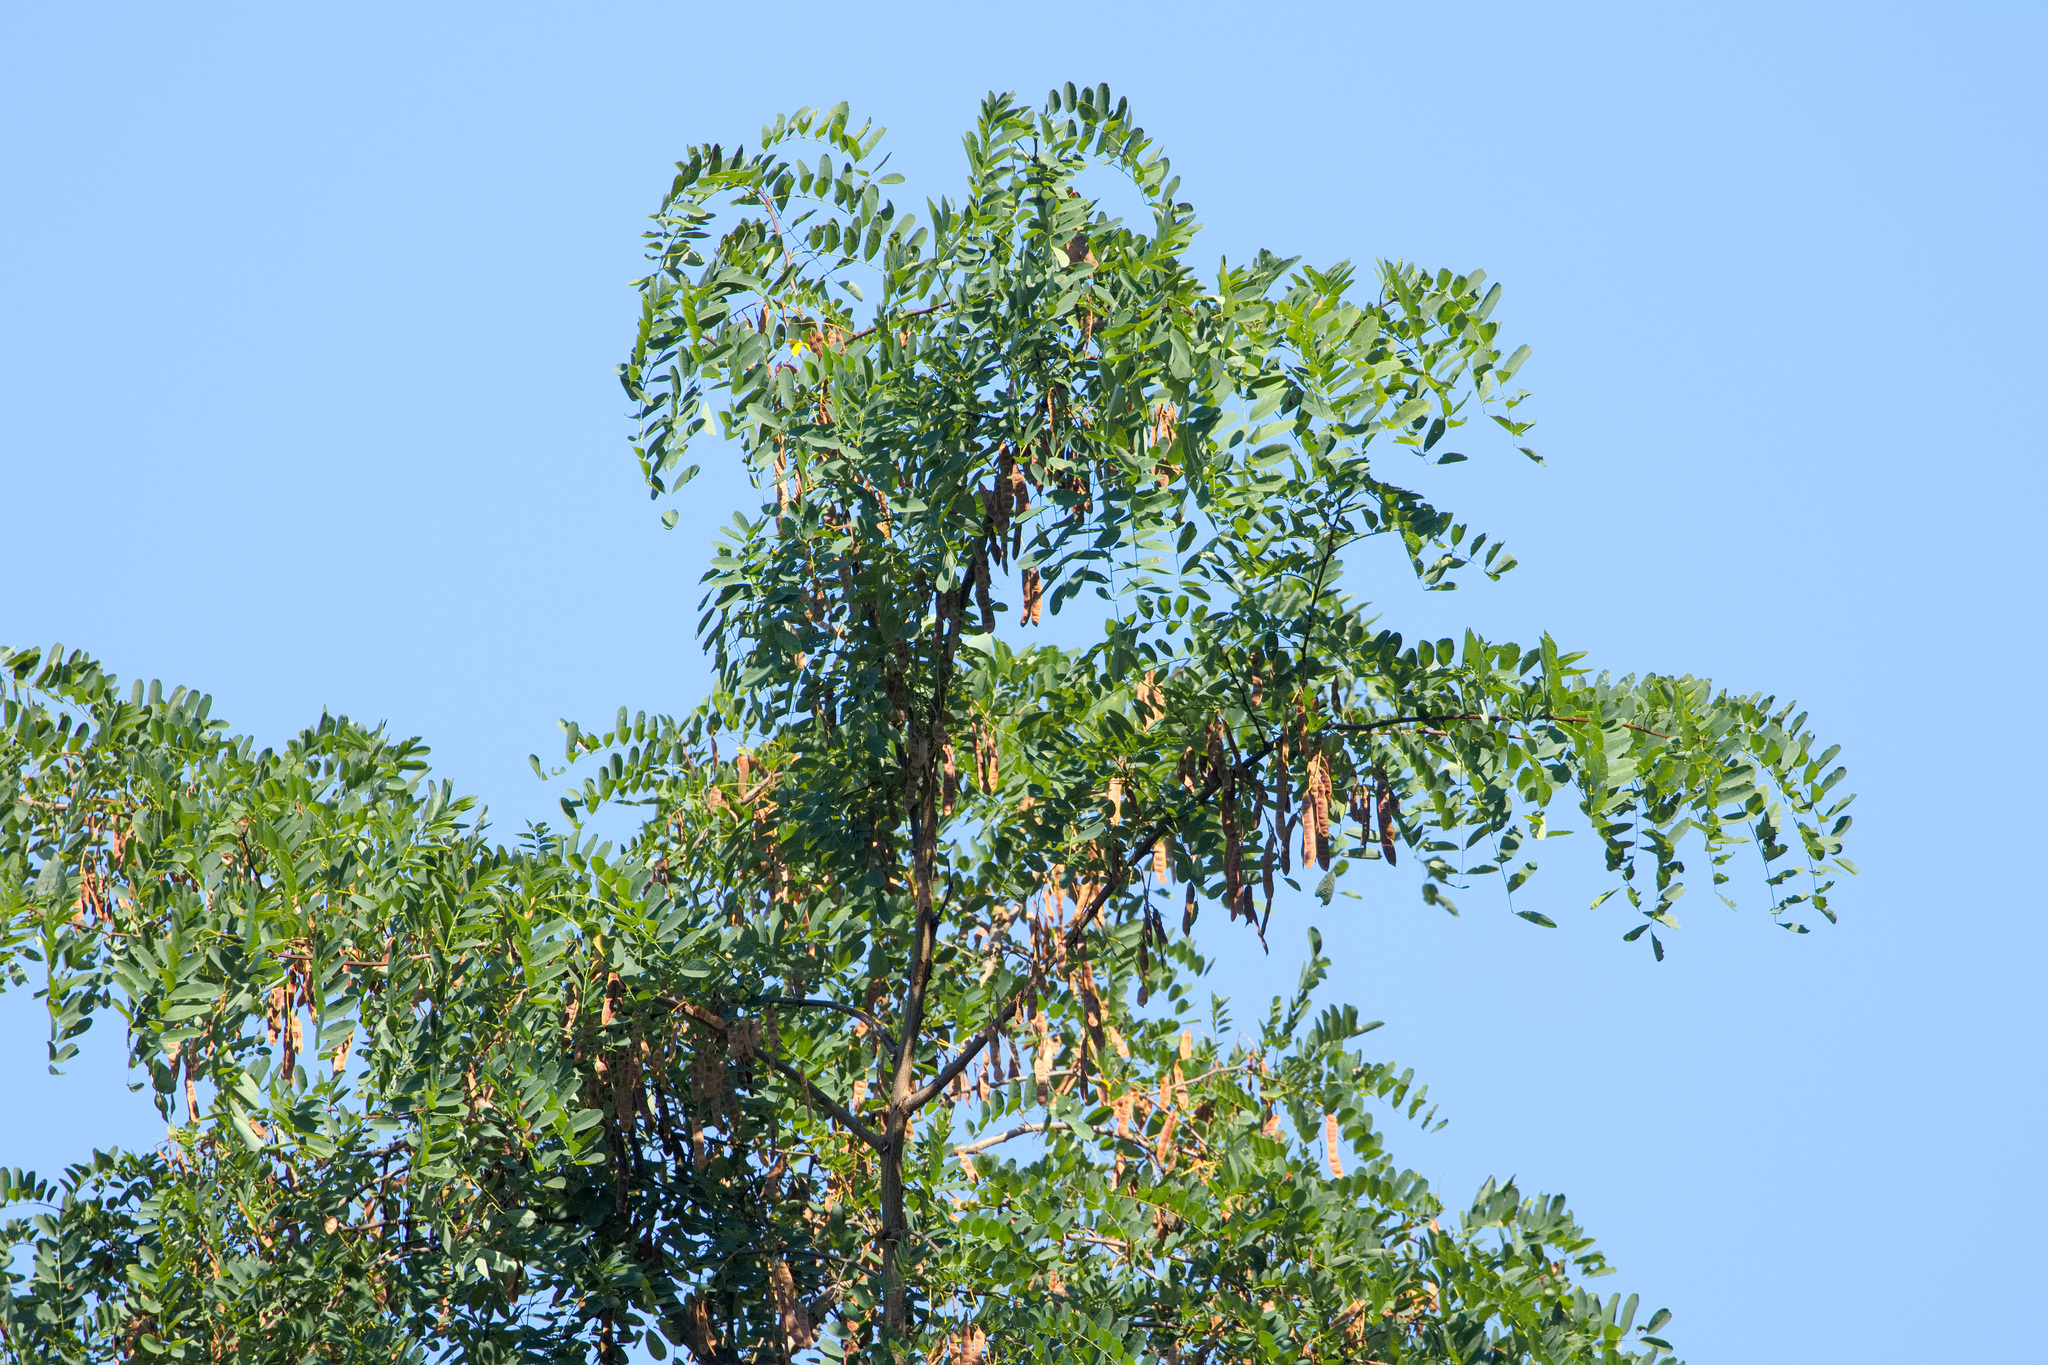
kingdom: Plantae
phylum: Tracheophyta
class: Magnoliopsida
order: Fabales
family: Fabaceae
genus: Robinia
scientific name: Robinia pseudoacacia
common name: Black locust
